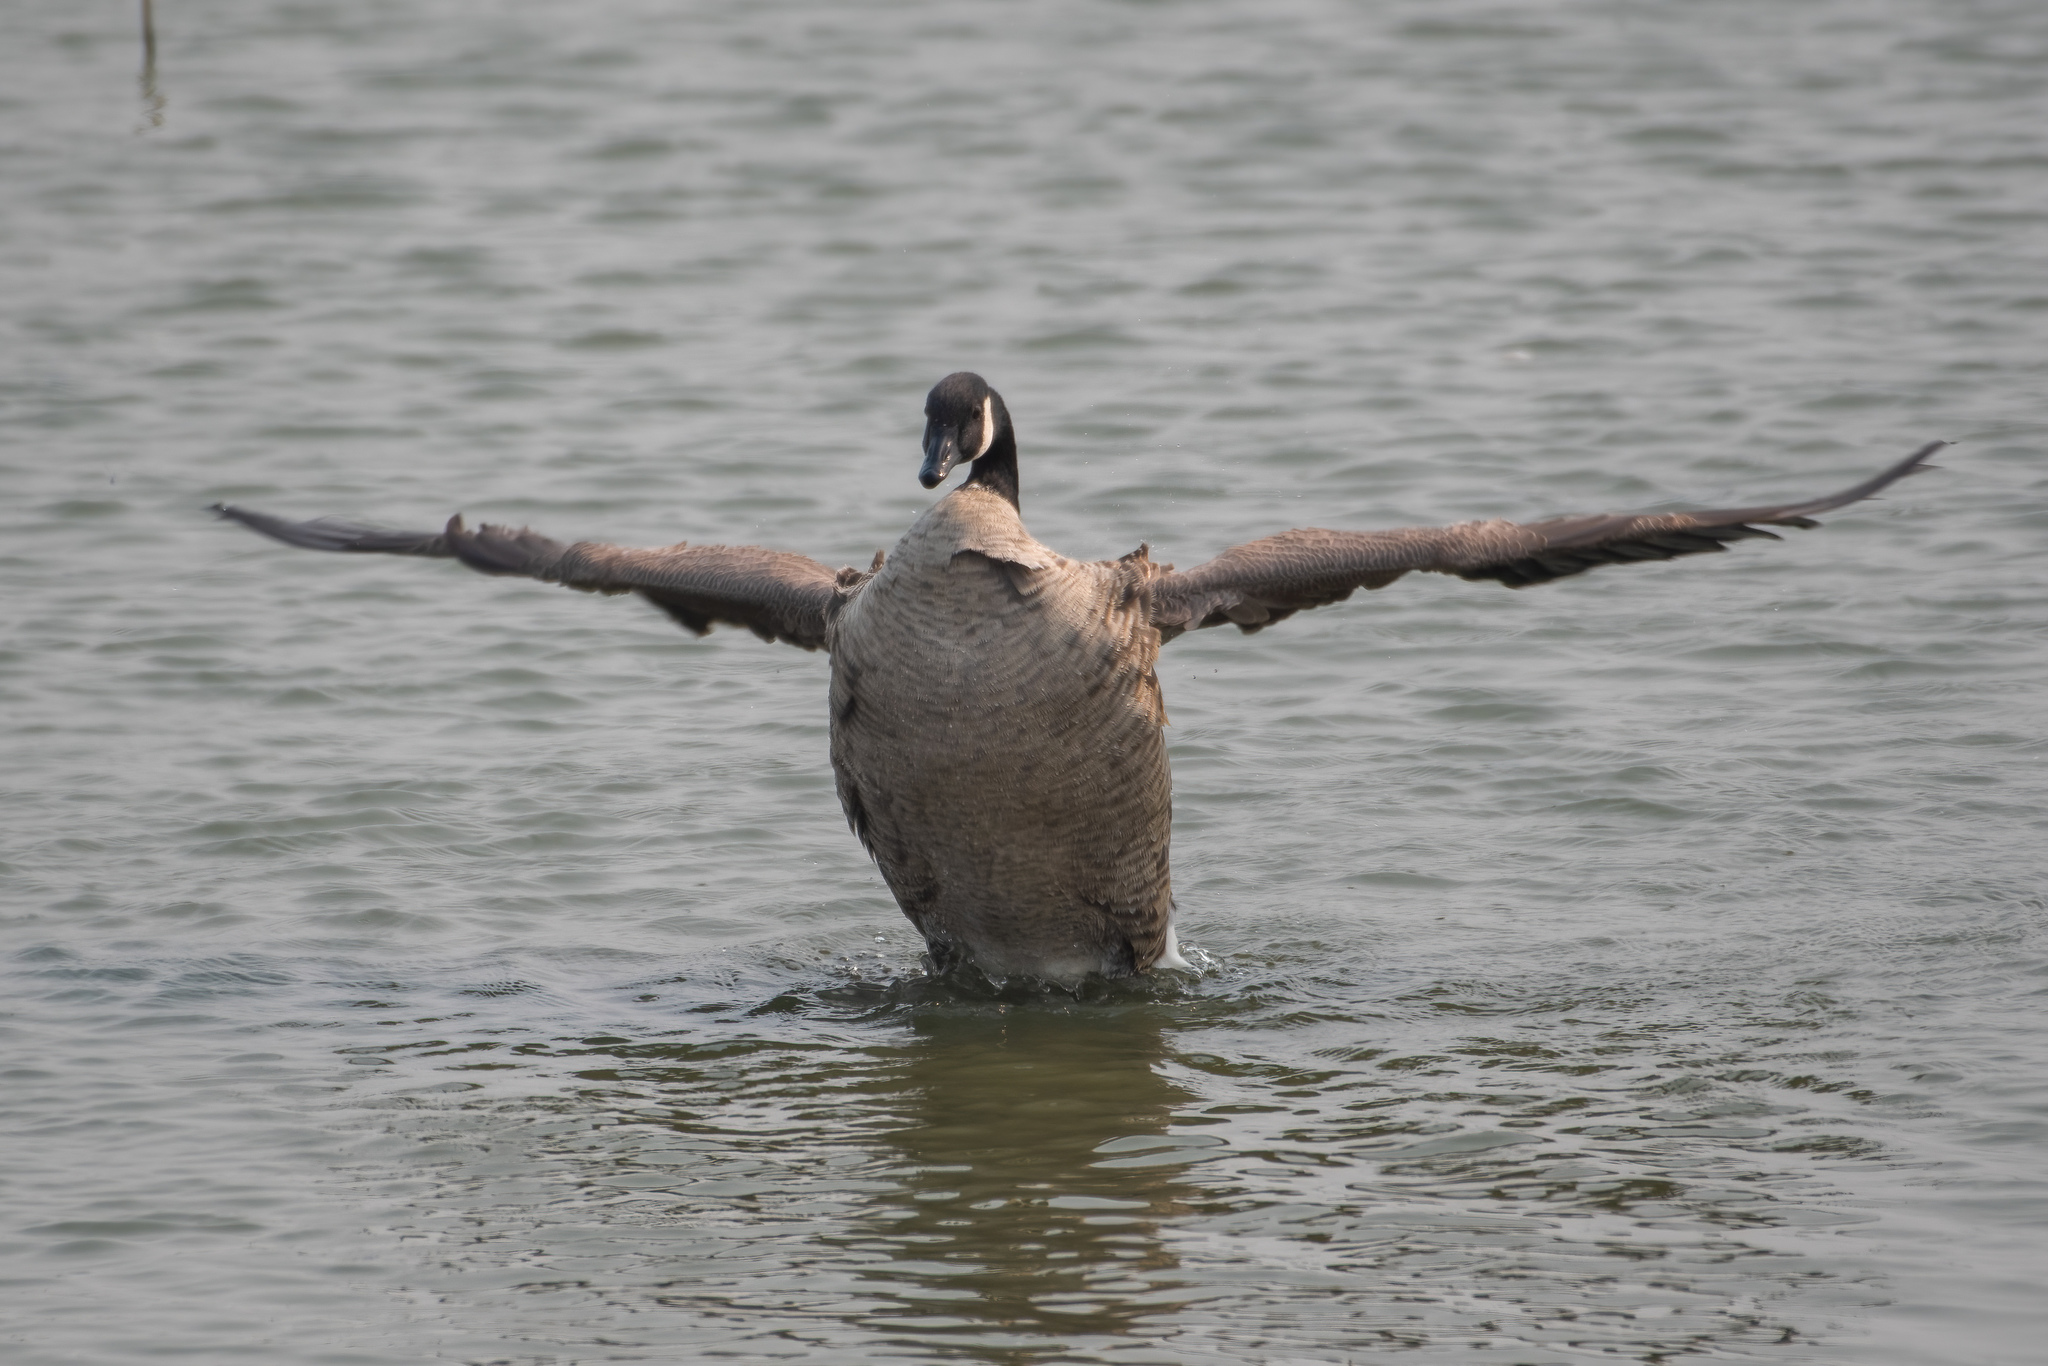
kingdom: Animalia
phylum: Chordata
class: Aves
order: Anseriformes
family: Anatidae
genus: Branta
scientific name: Branta canadensis
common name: Canada goose
